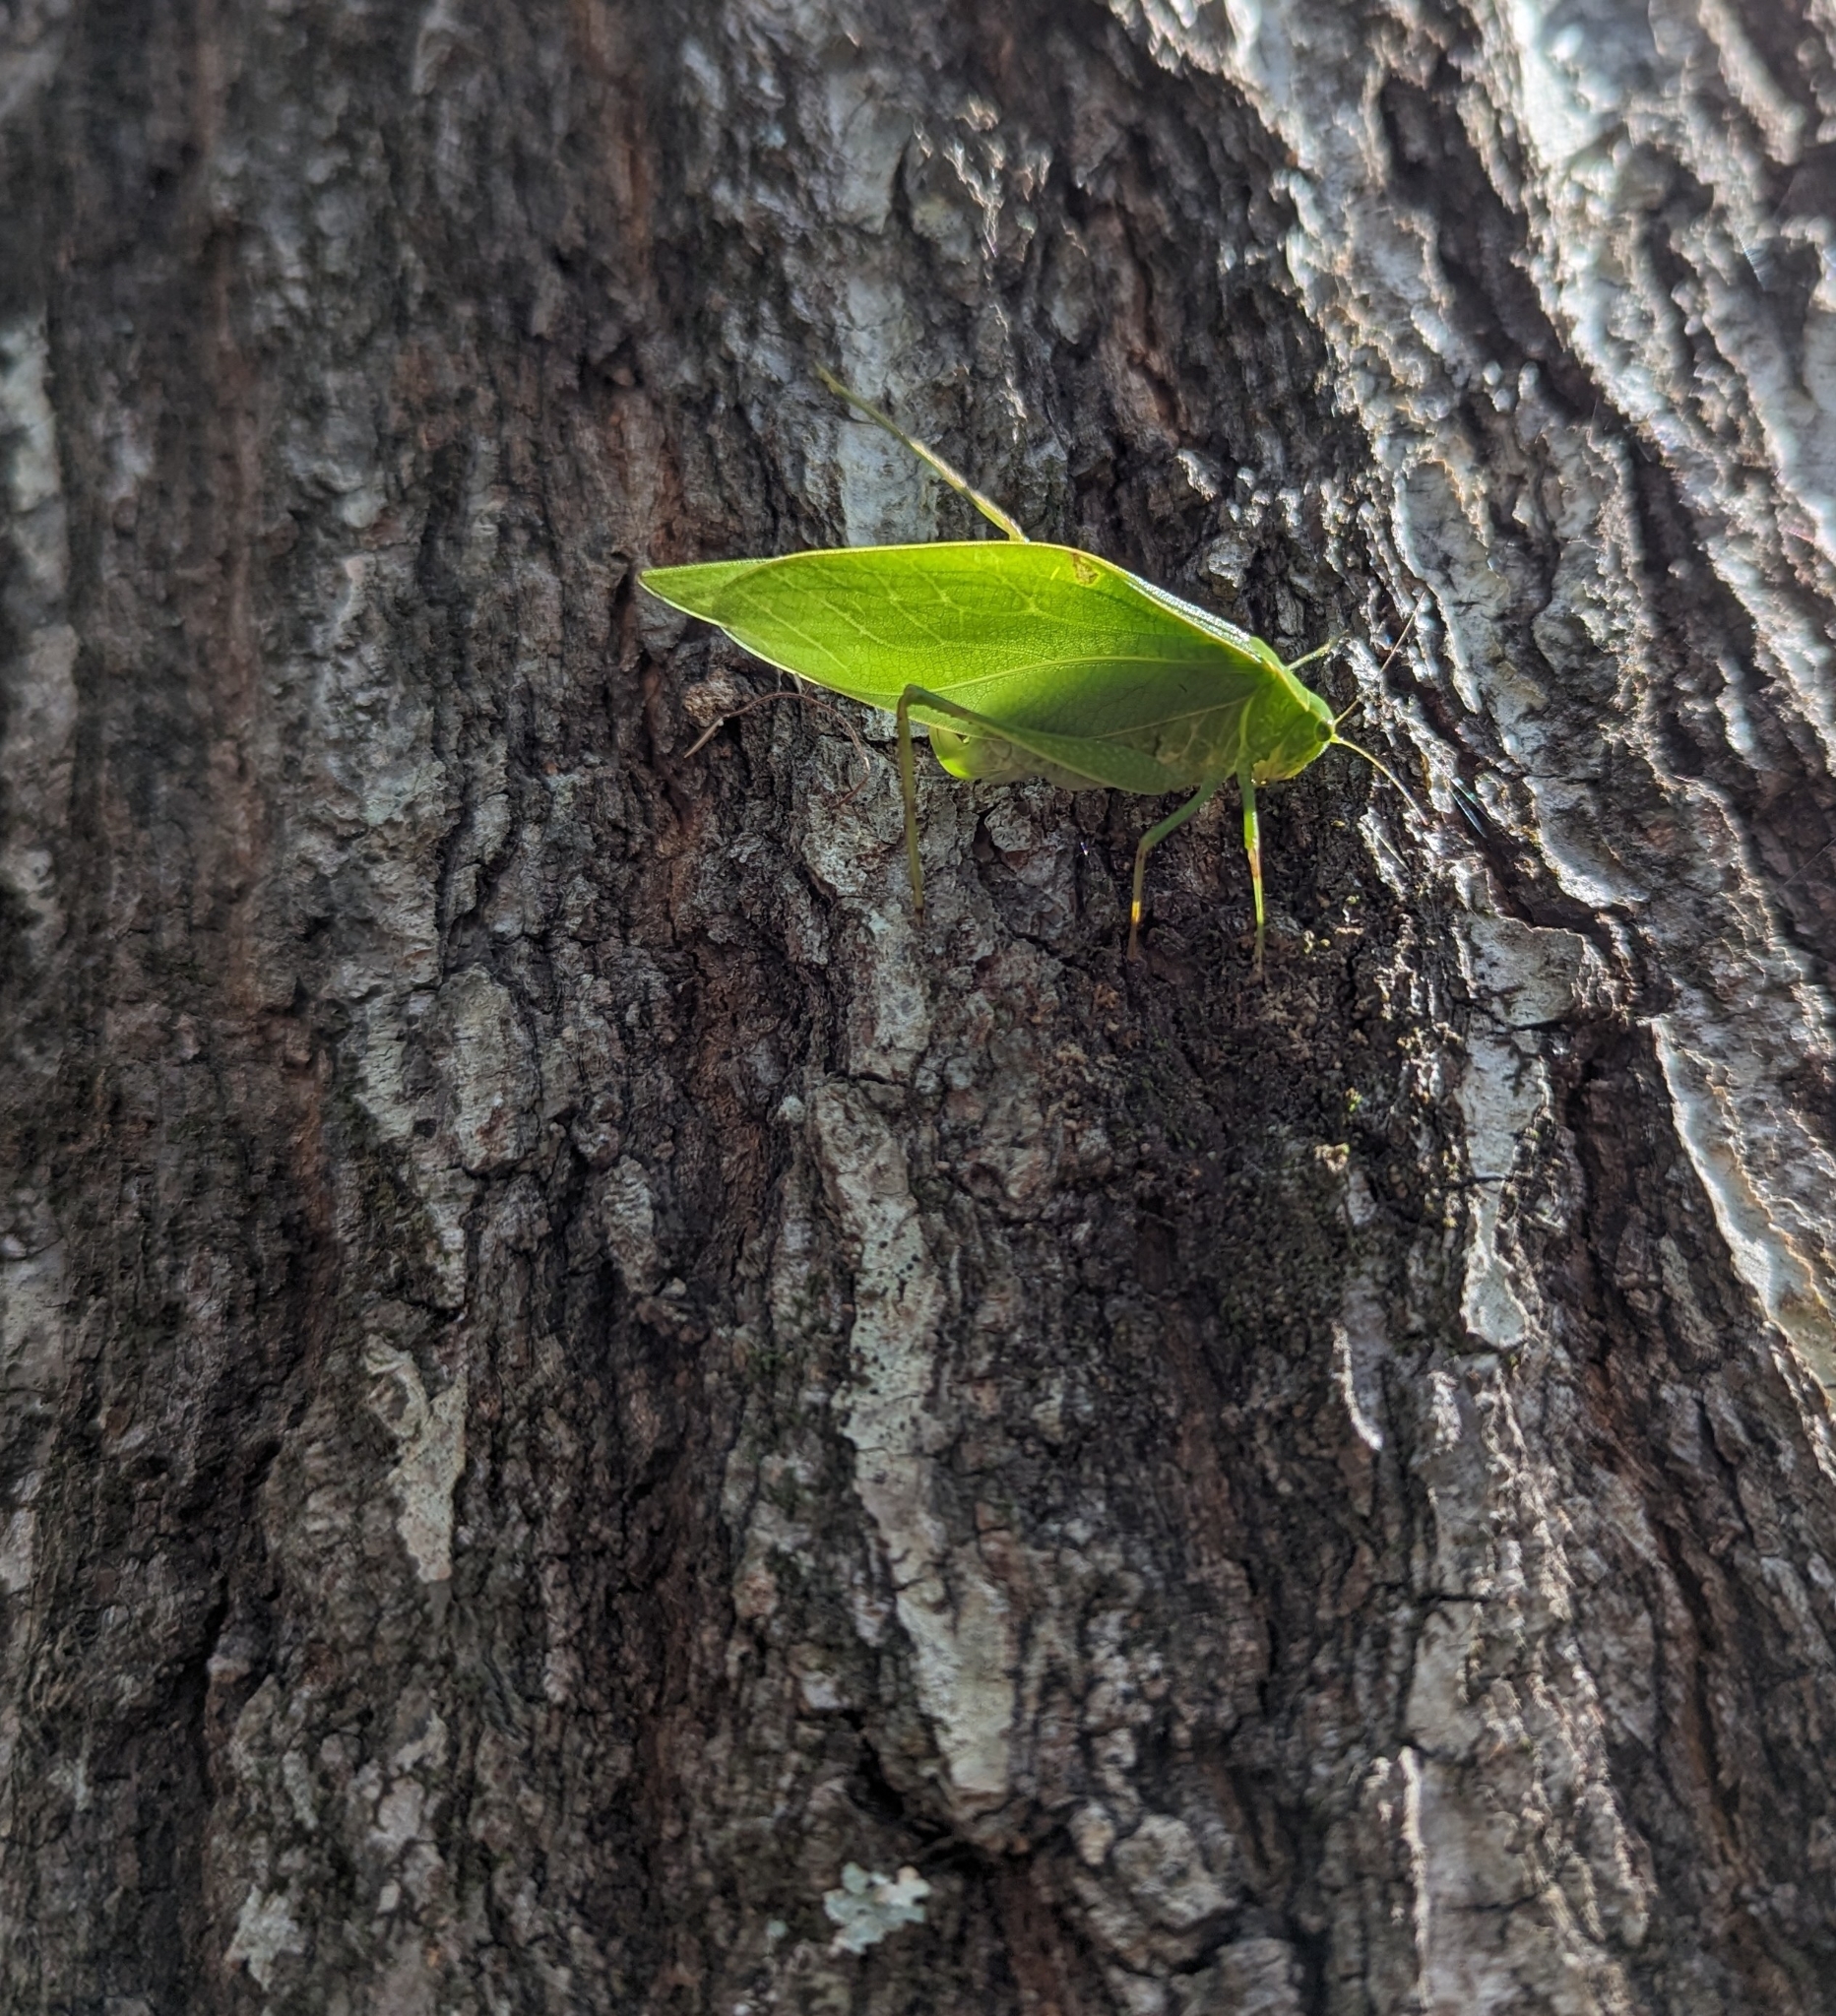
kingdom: Animalia
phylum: Arthropoda
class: Insecta
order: Orthoptera
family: Tettigoniidae
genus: Microcentrum
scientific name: Microcentrum rhombifolium
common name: Broad-winged katydid
